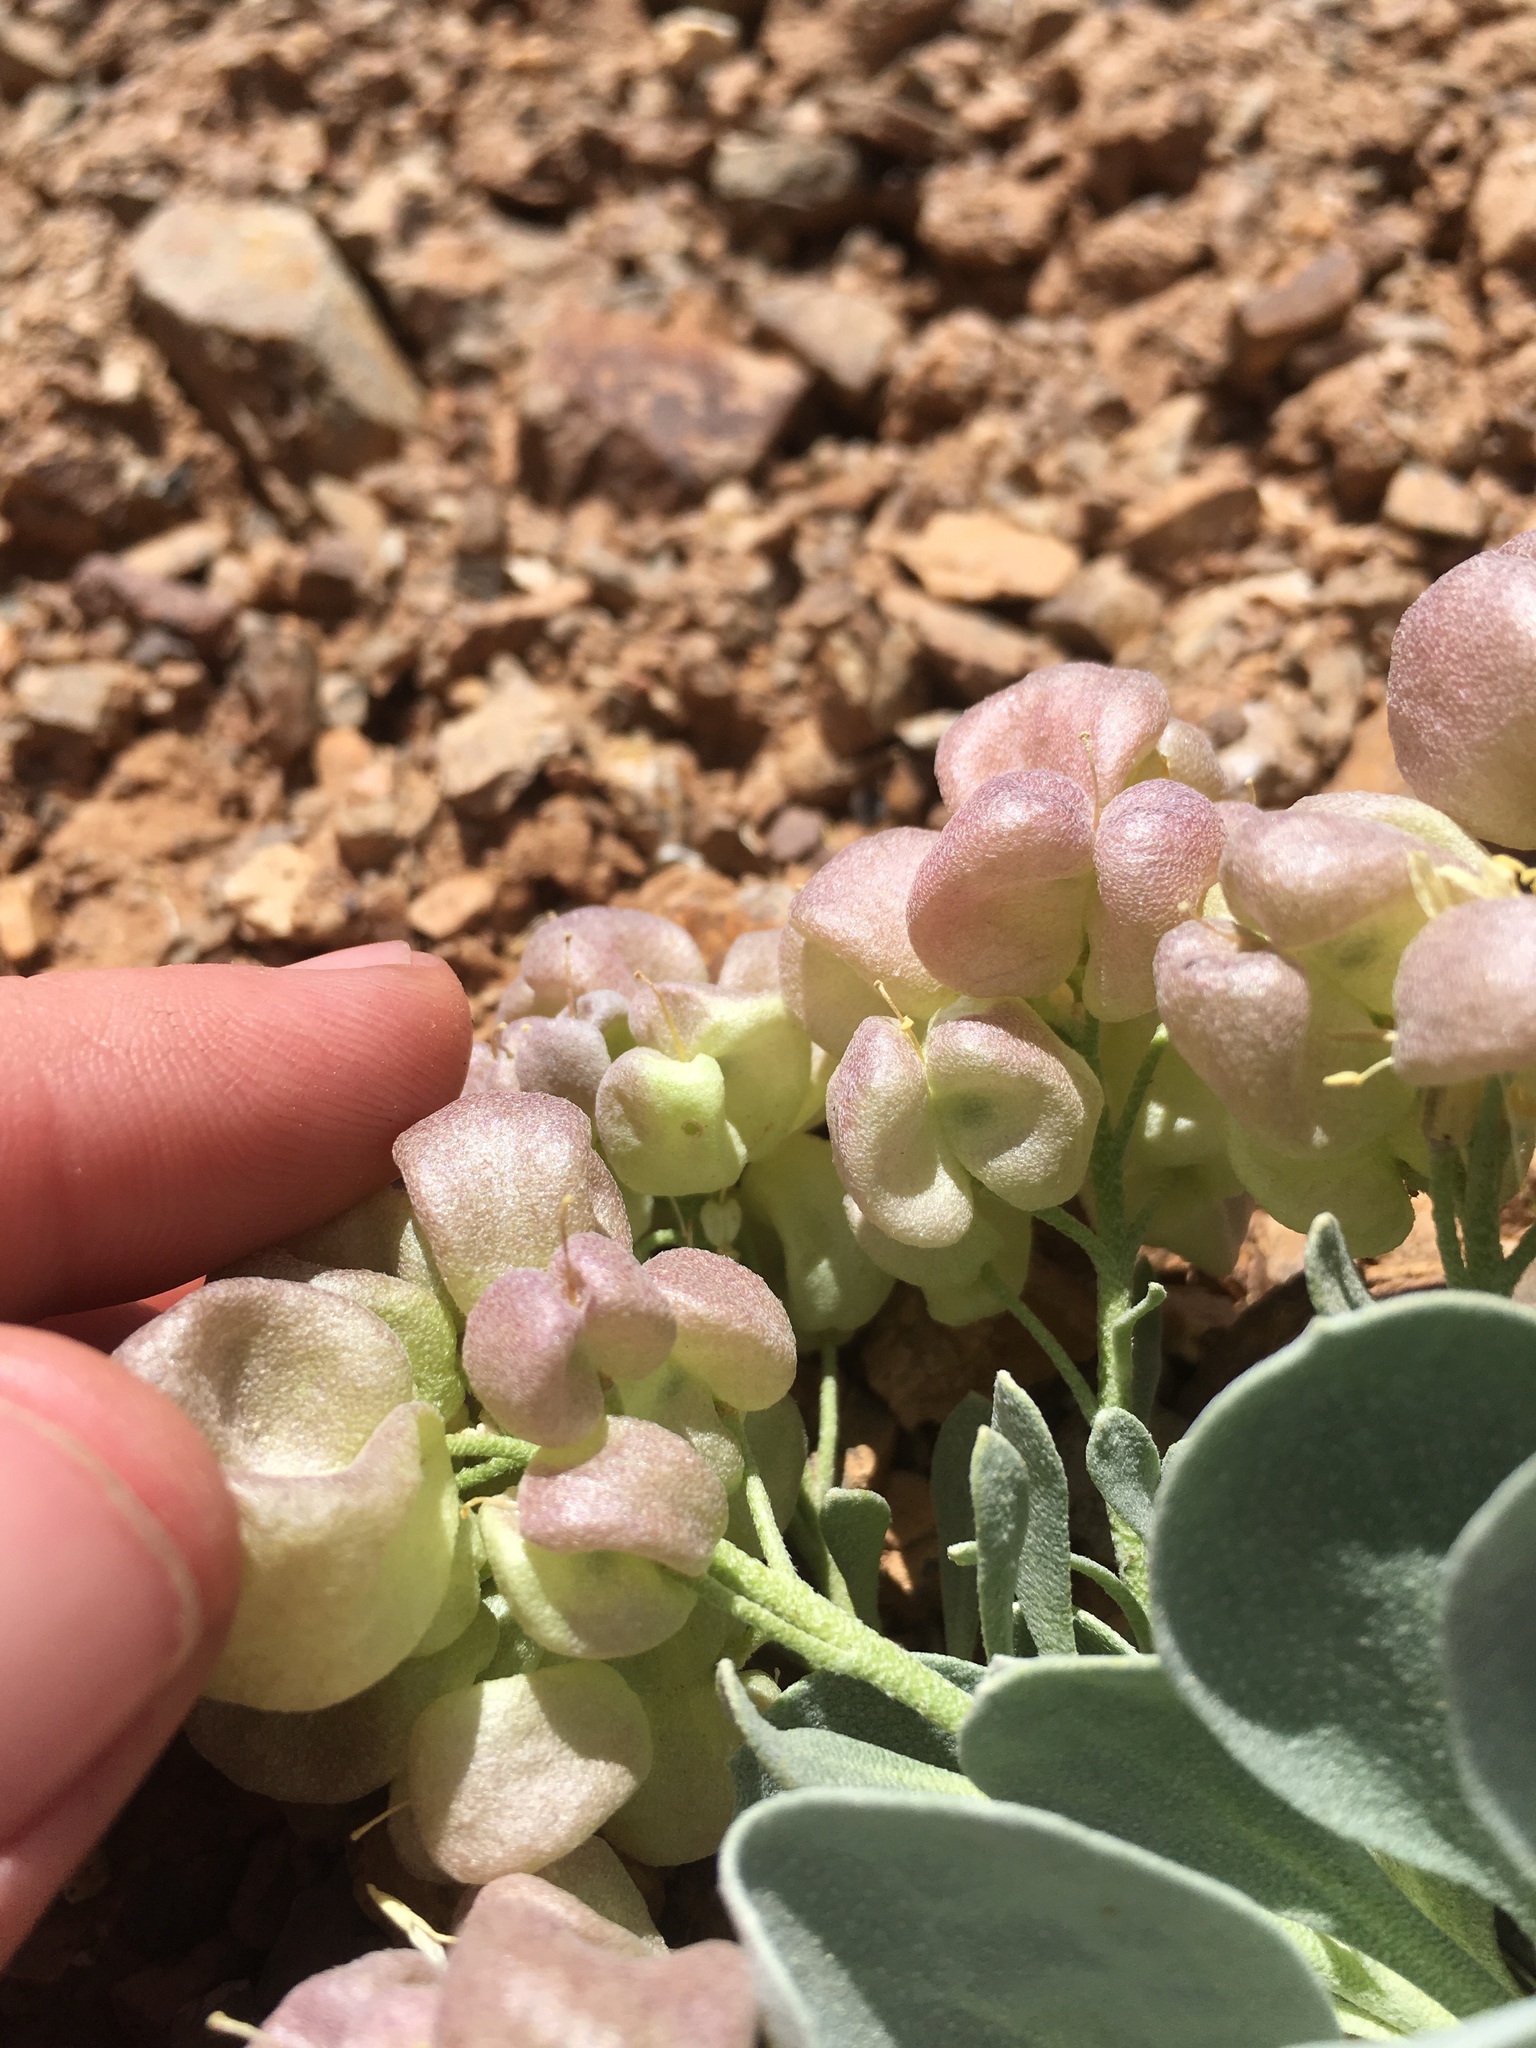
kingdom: Plantae
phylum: Tracheophyta
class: Magnoliopsida
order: Brassicales
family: Brassicaceae
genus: Physaria
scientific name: Physaria chambersii
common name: Chamber's twinpod
